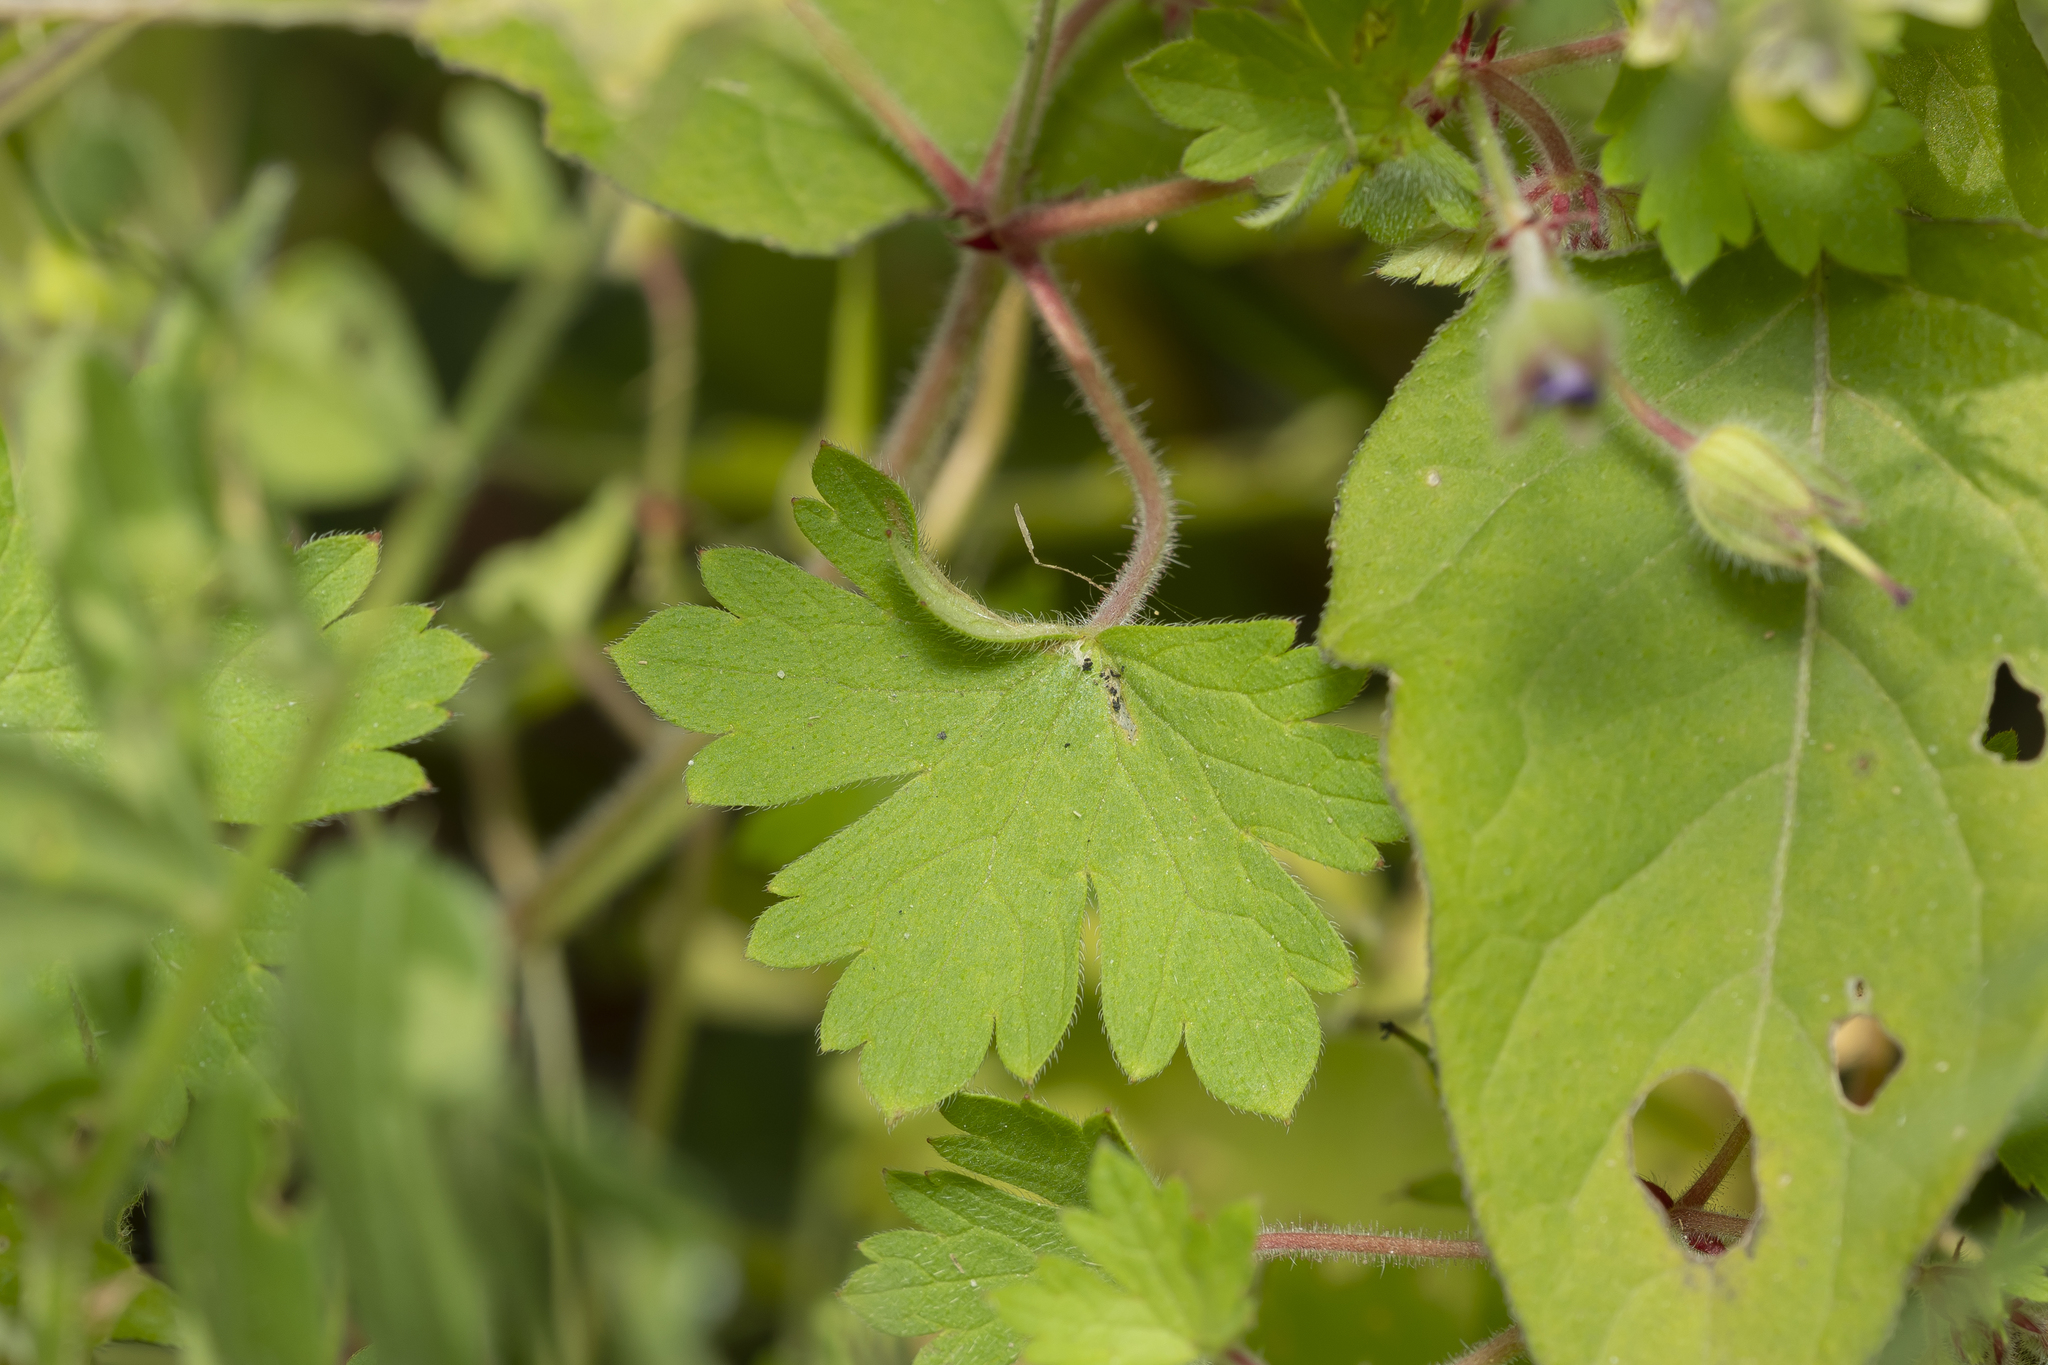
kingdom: Plantae
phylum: Tracheophyta
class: Magnoliopsida
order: Geraniales
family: Geraniaceae
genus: Geranium
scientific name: Geranium rotundifolium
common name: Round-leaved crane's-bill
